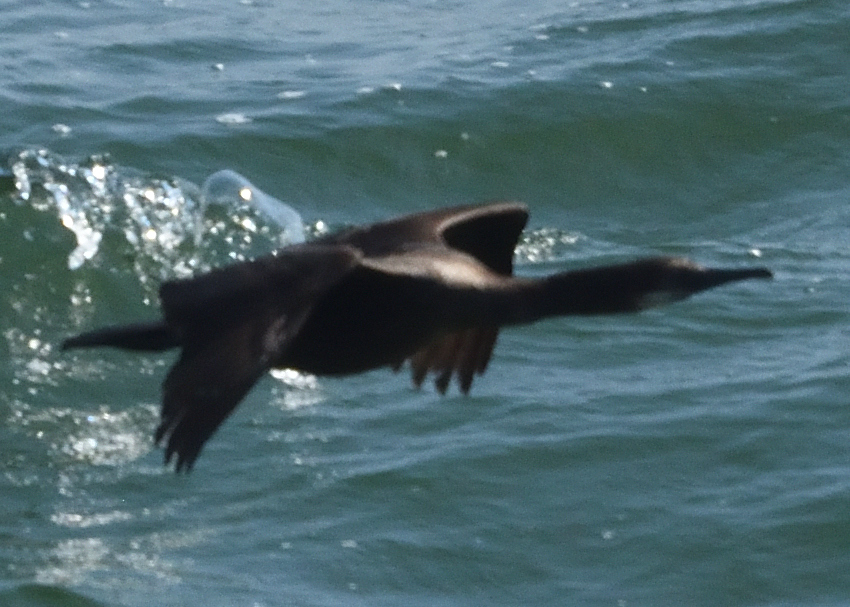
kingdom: Animalia
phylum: Chordata
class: Aves
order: Suliformes
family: Phalacrocoracidae
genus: Urile
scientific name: Urile penicillatus
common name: Brandt's cormorant
